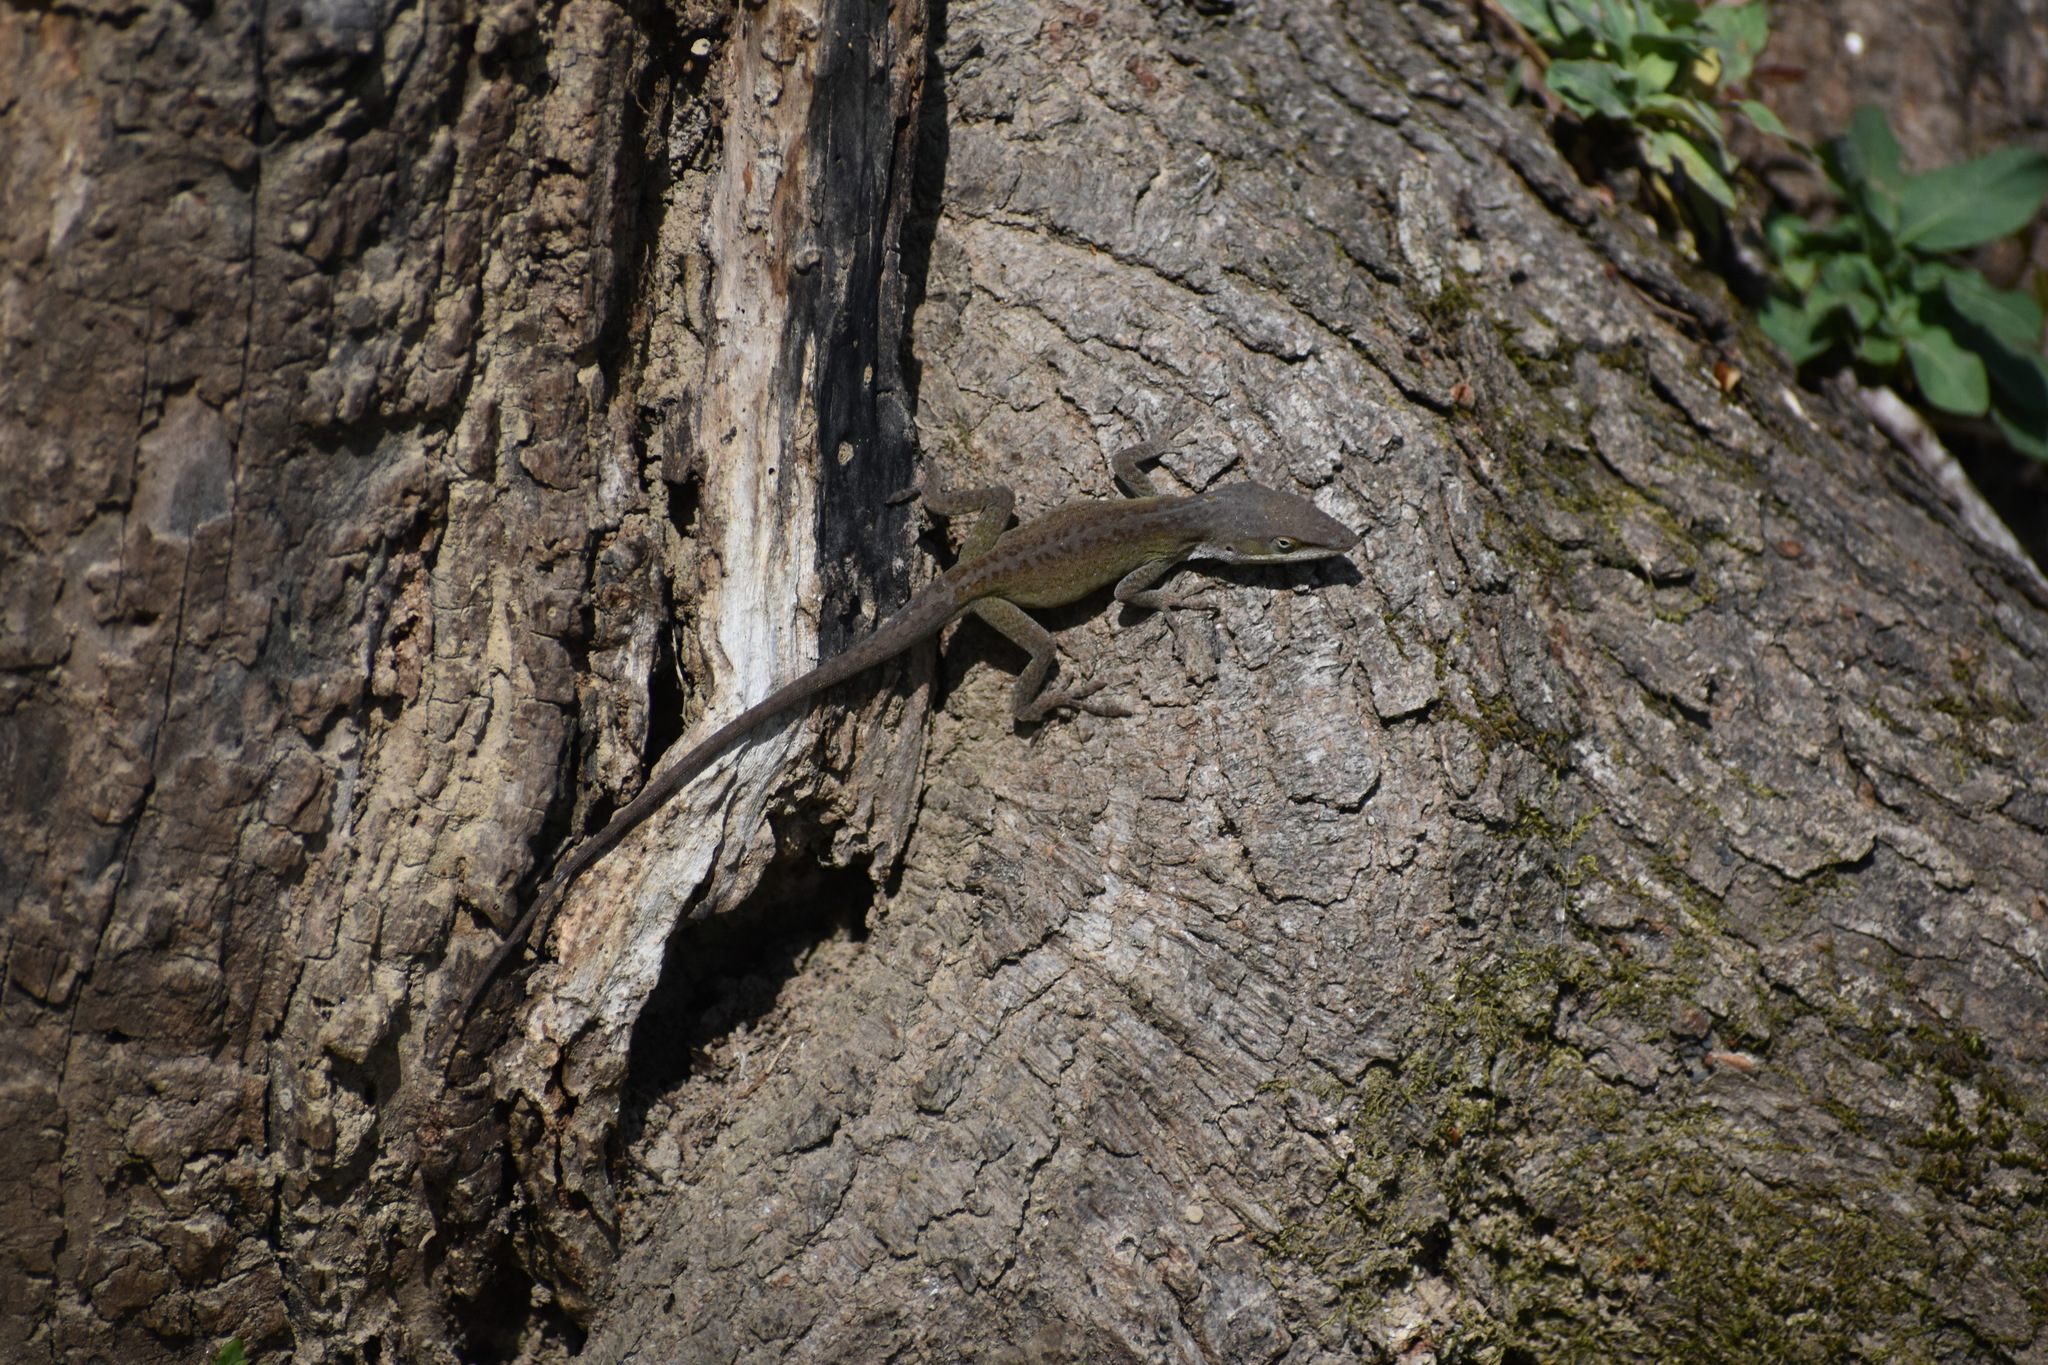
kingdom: Animalia
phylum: Chordata
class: Squamata
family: Dactyloidae
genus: Anolis
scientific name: Anolis carolinensis
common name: Green anole
